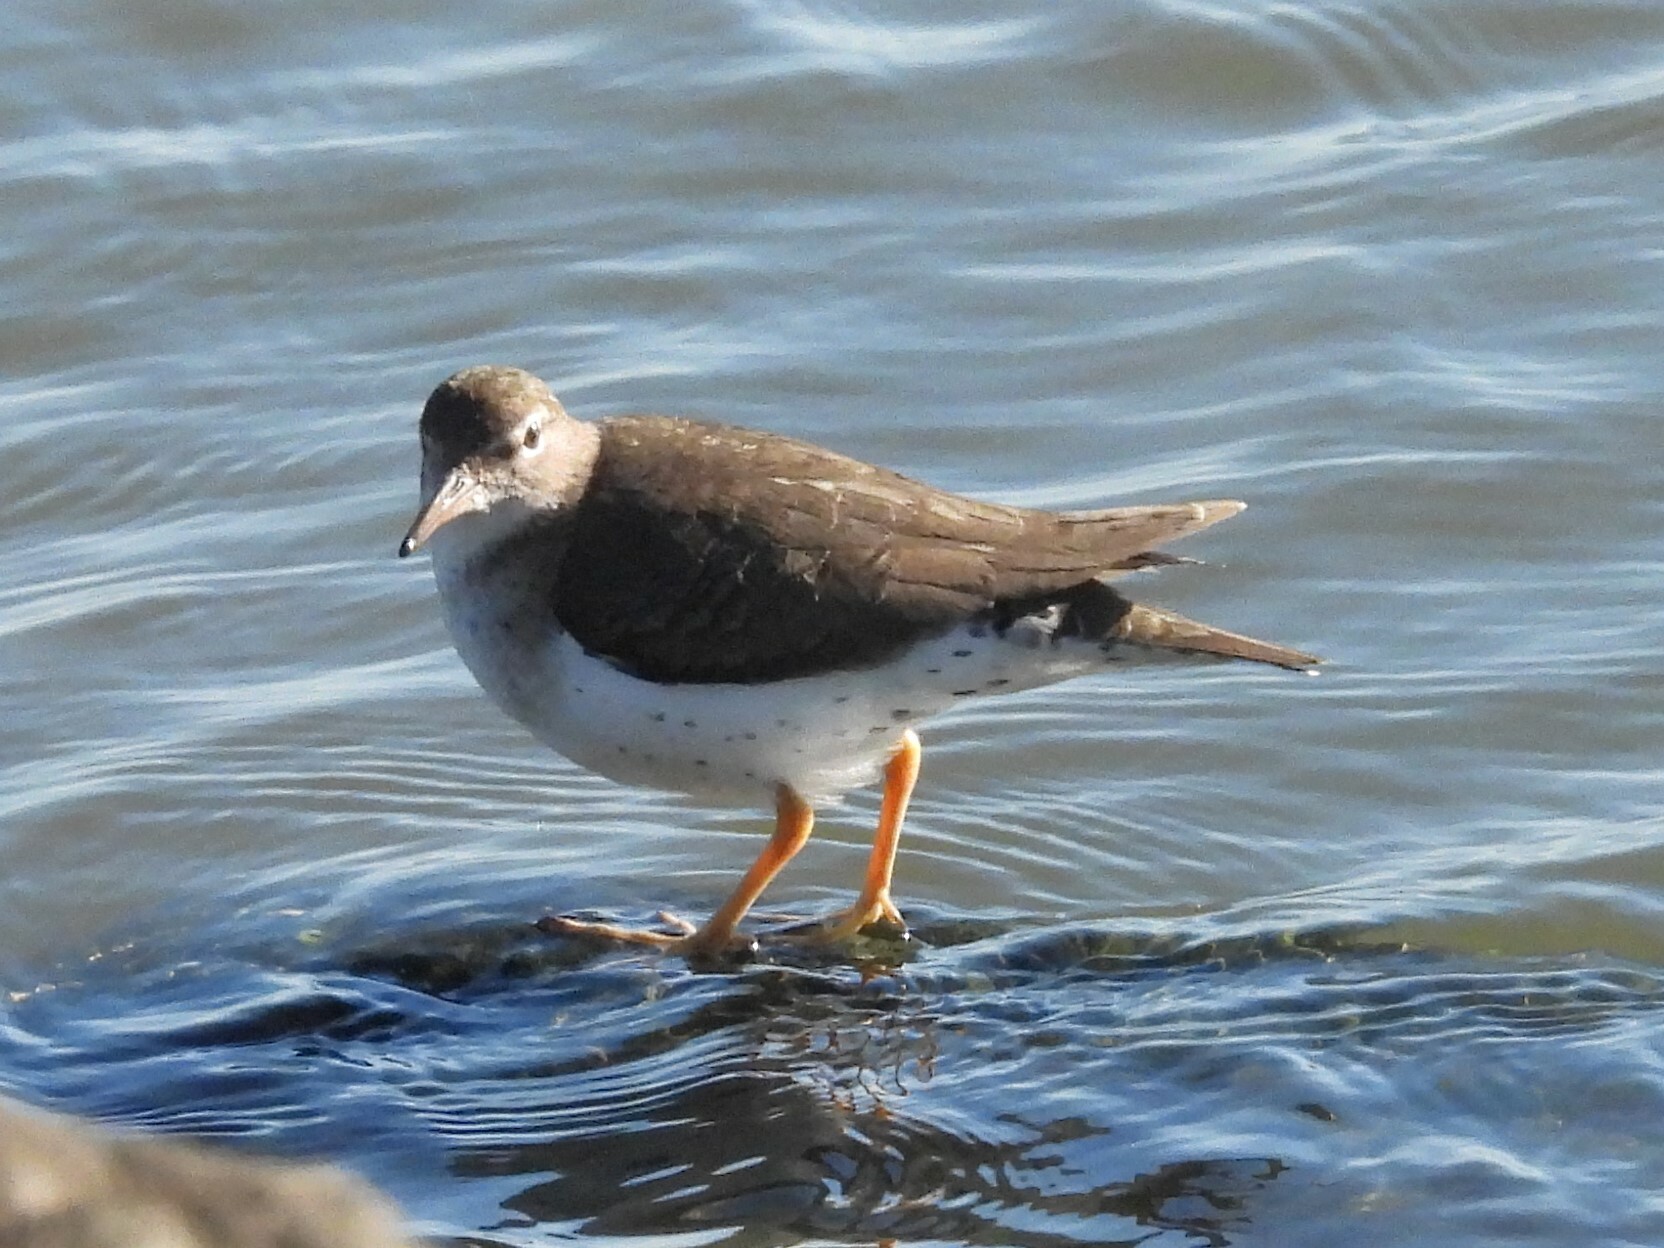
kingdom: Animalia
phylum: Chordata
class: Aves
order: Charadriiformes
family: Scolopacidae
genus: Actitis
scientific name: Actitis macularius
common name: Spotted sandpiper
